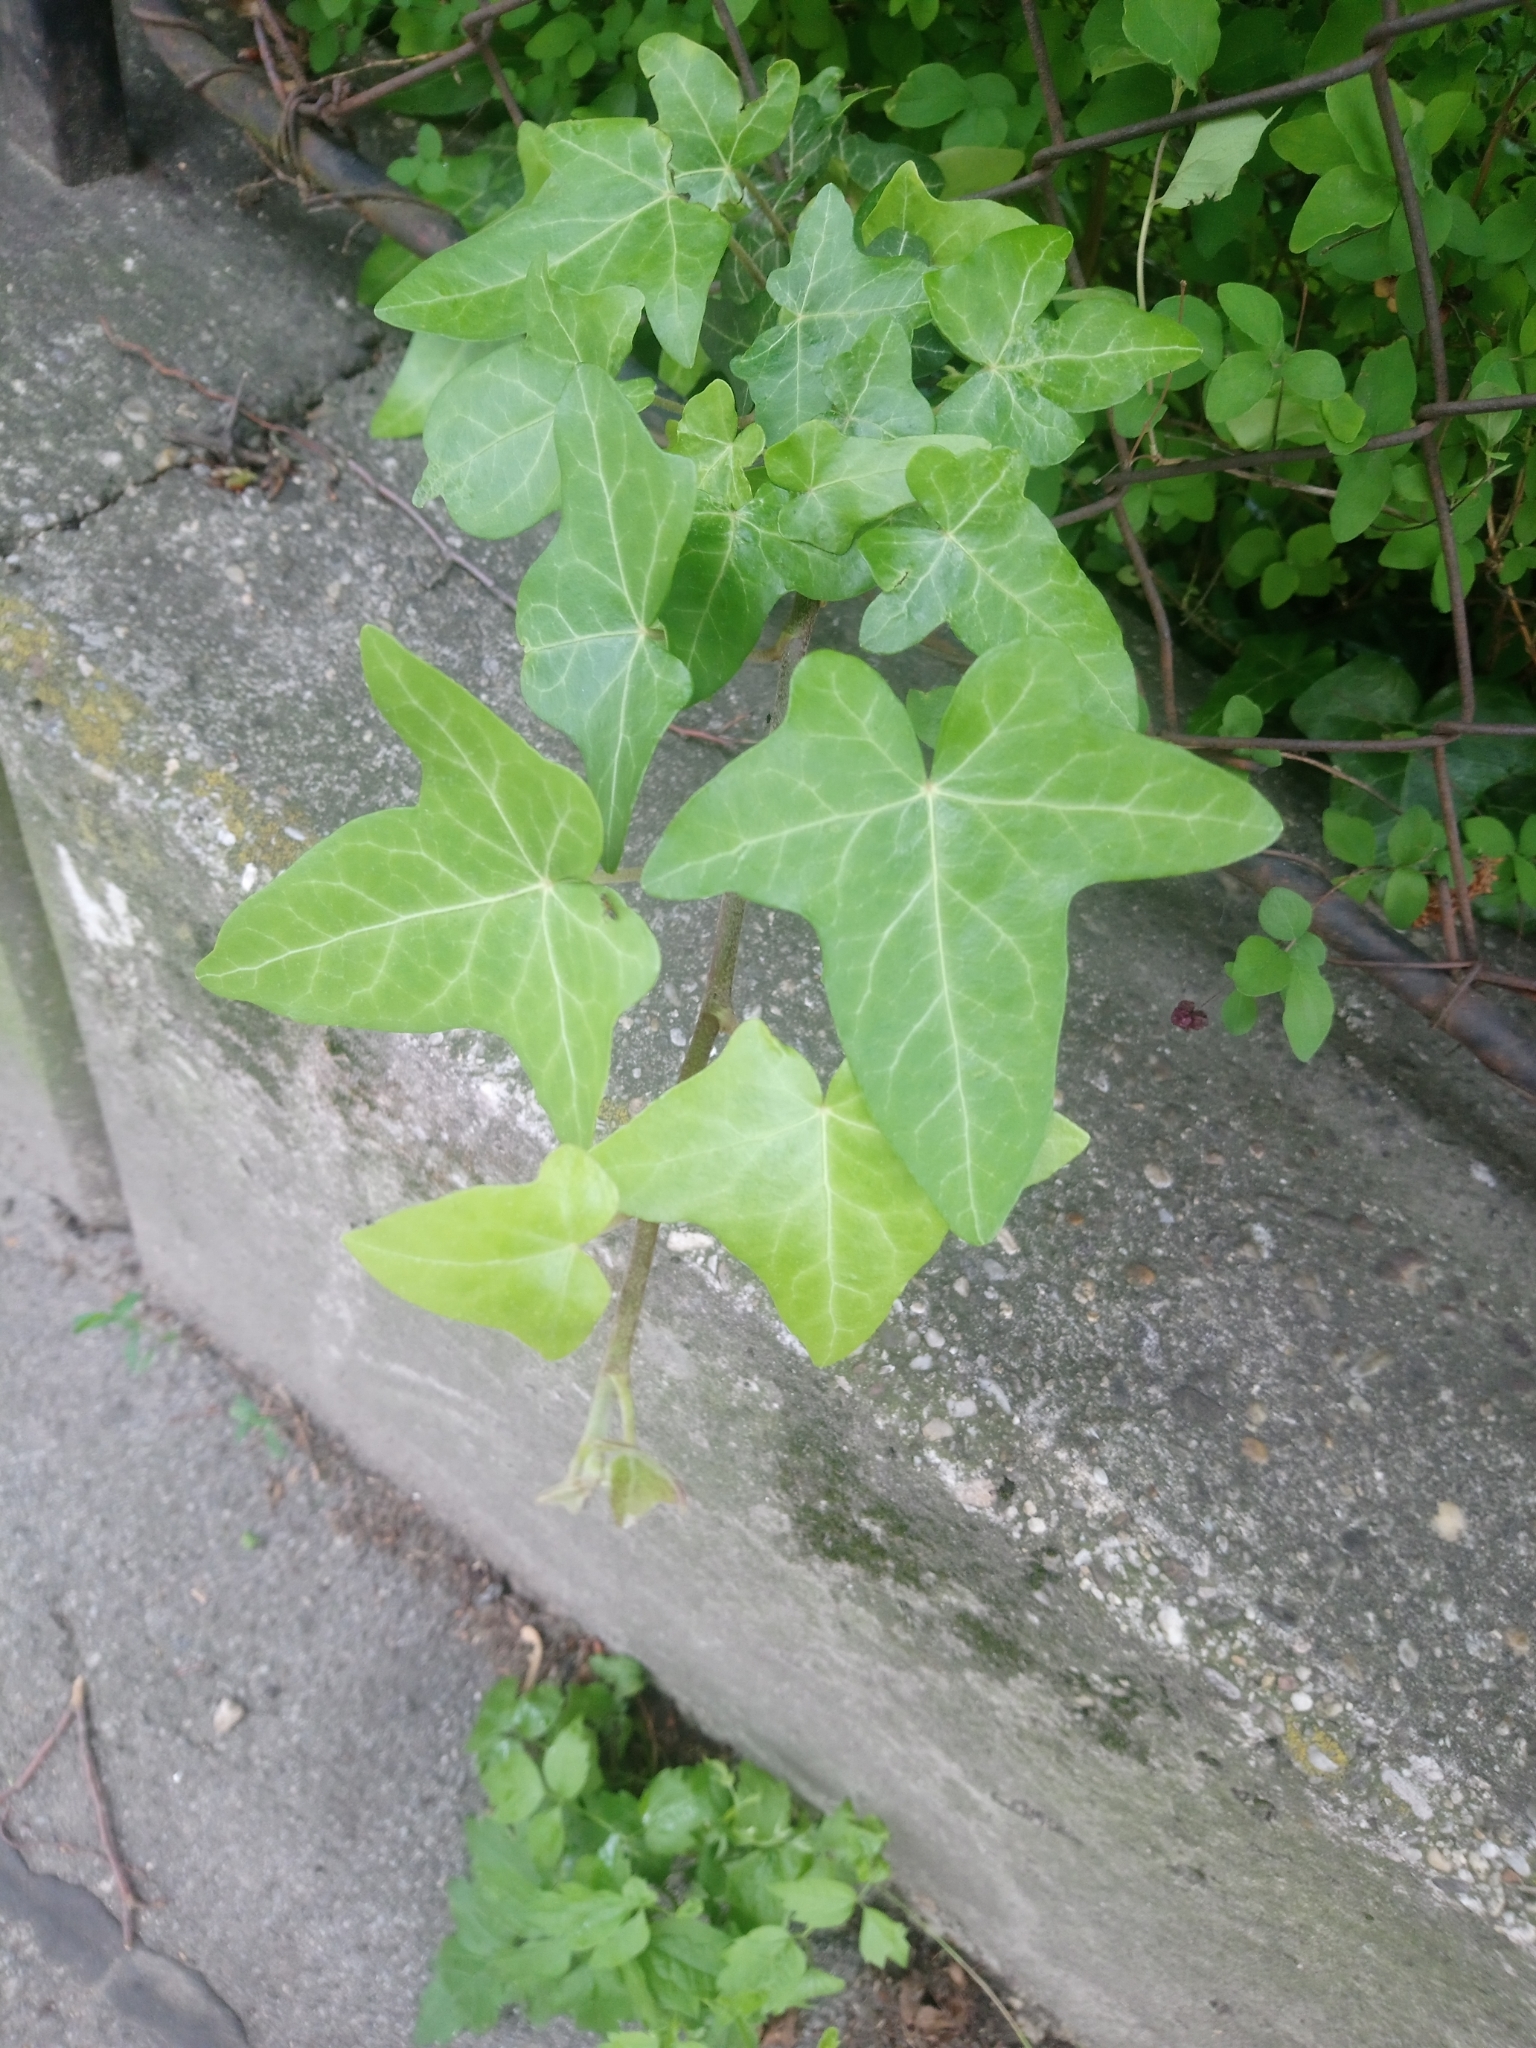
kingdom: Plantae
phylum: Tracheophyta
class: Magnoliopsida
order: Apiales
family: Araliaceae
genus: Hedera
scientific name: Hedera helix
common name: Ivy
